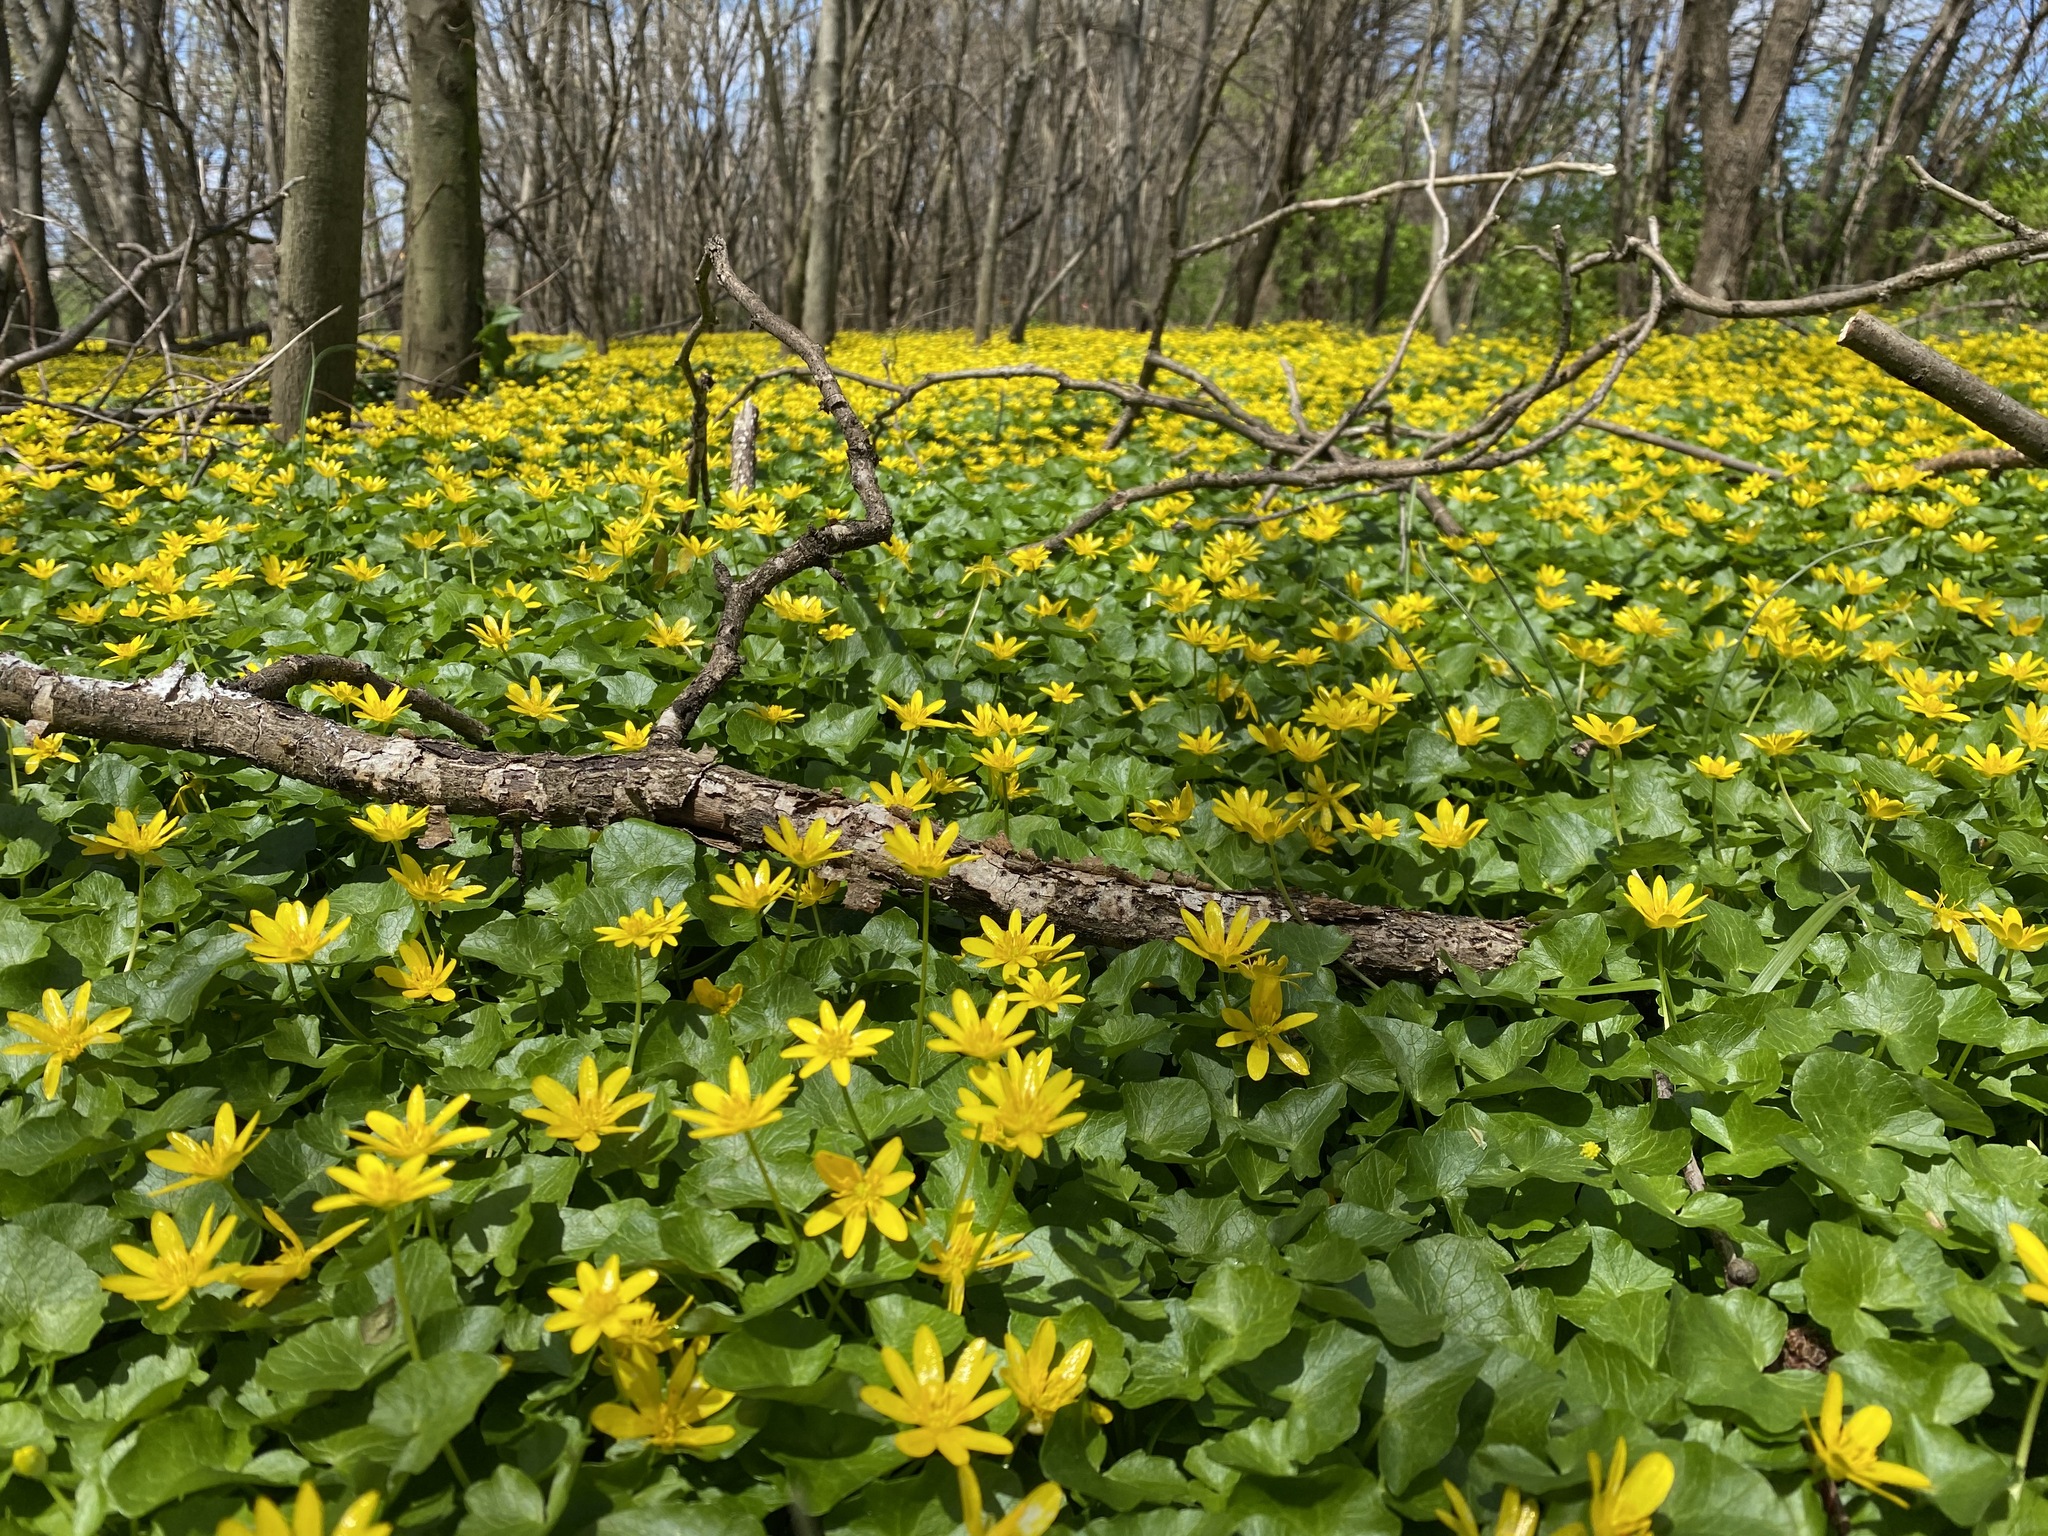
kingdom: Plantae
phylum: Tracheophyta
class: Magnoliopsida
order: Ranunculales
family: Ranunculaceae
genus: Ficaria
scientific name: Ficaria verna
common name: Lesser celandine
